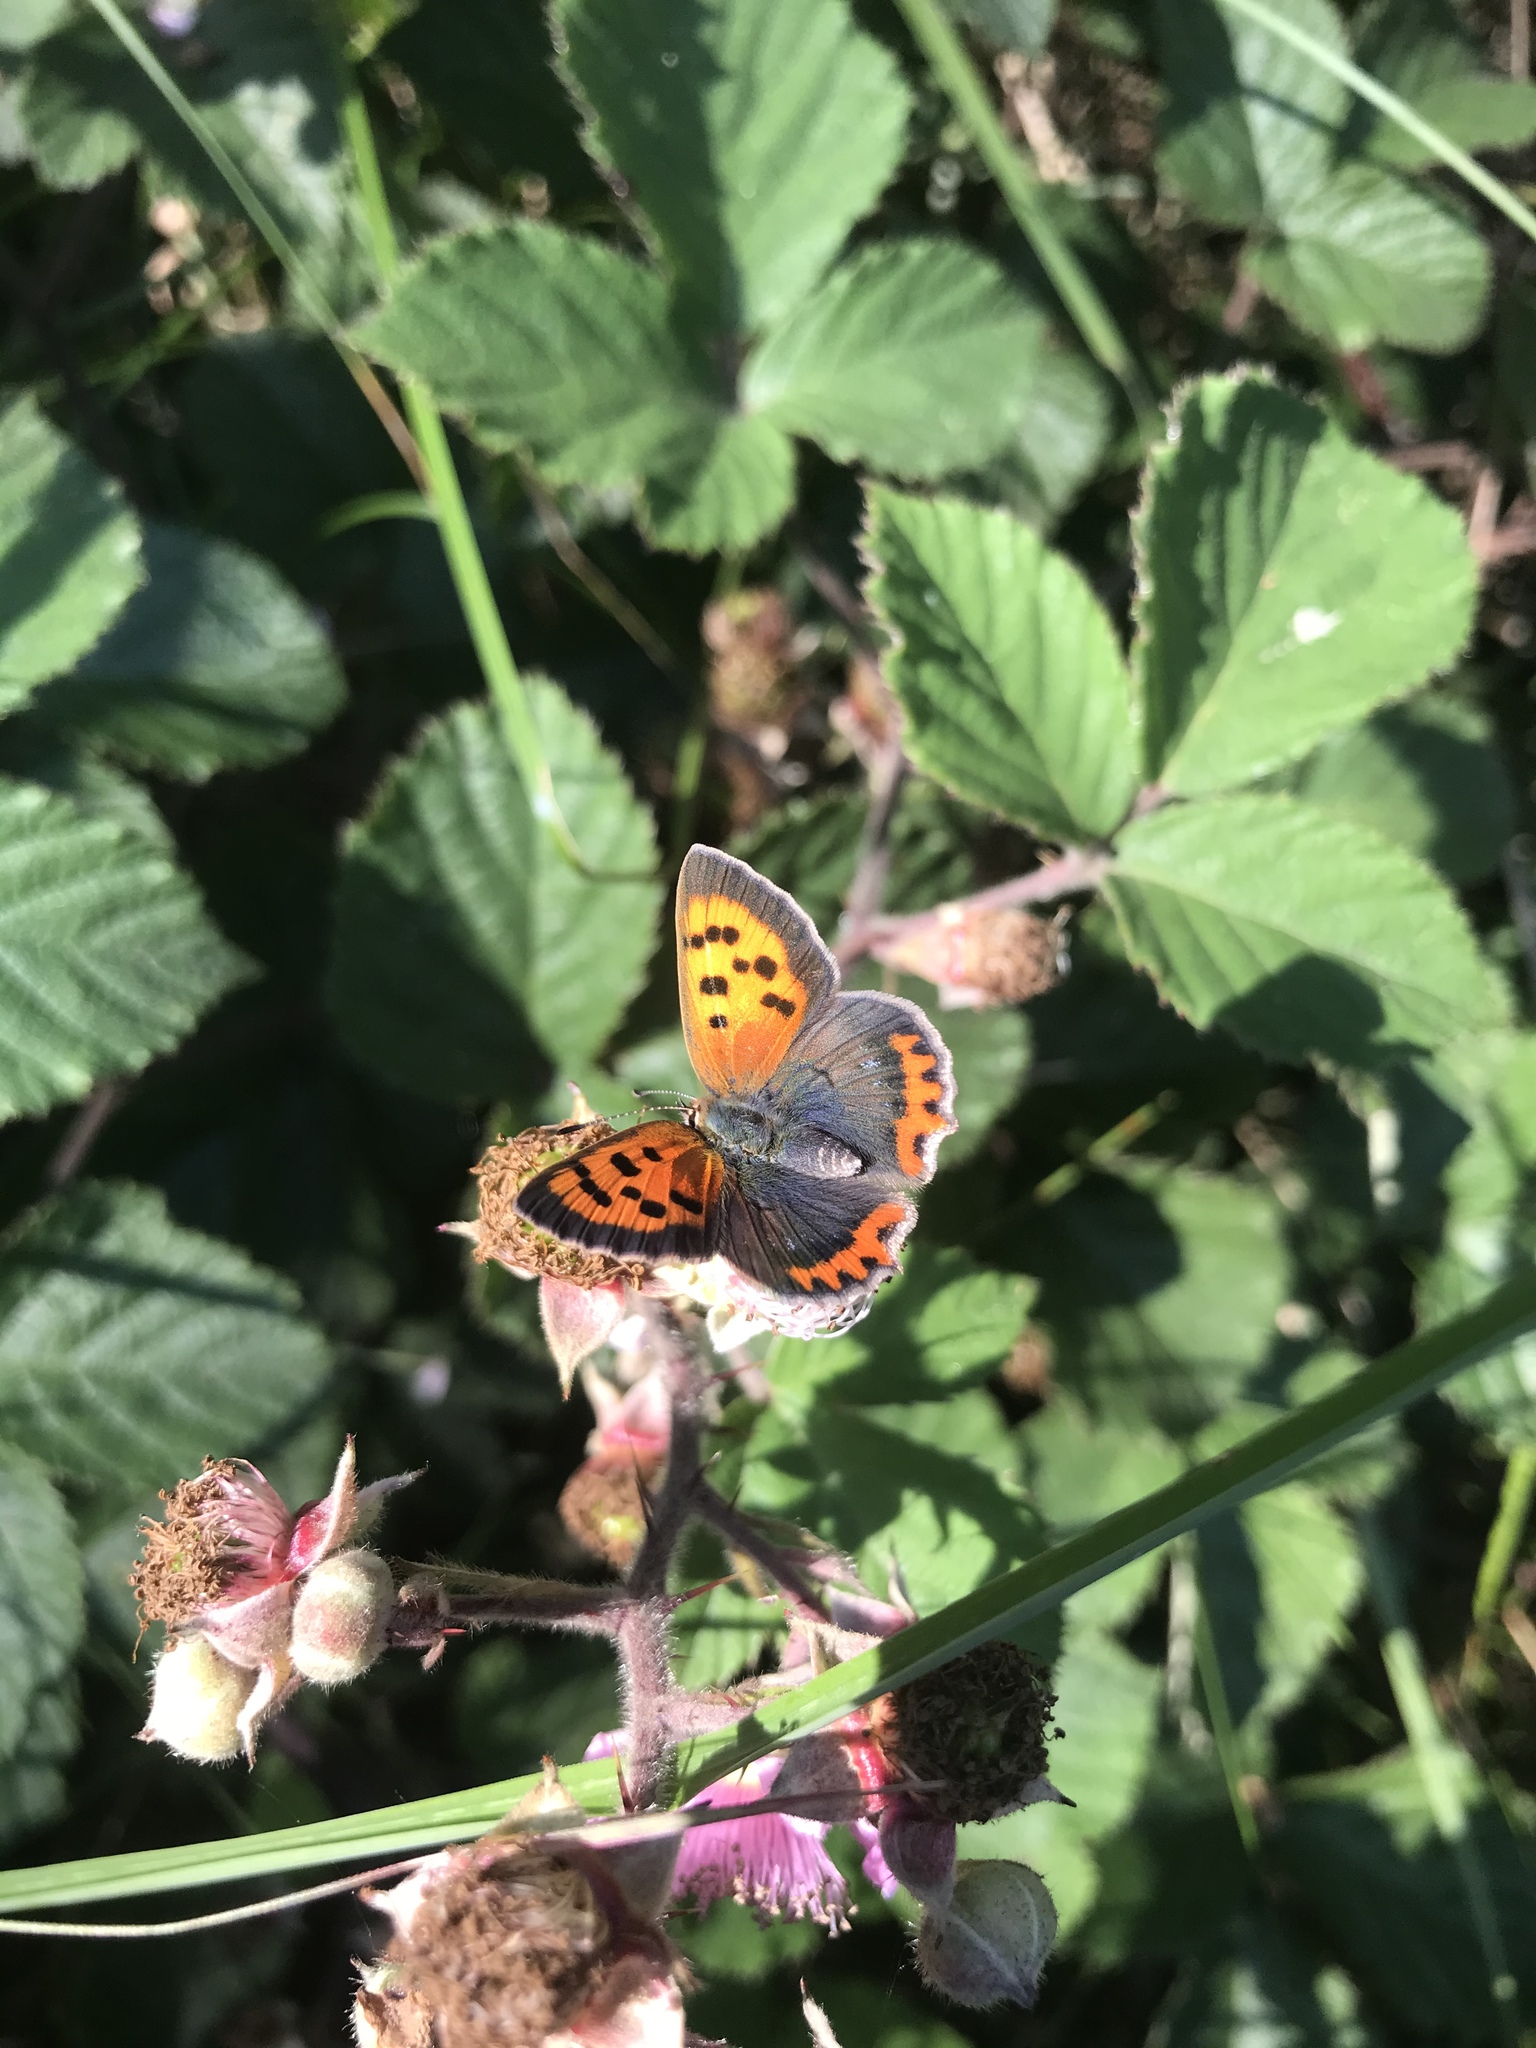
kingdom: Animalia
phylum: Arthropoda
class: Insecta
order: Lepidoptera
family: Lycaenidae
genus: Lycaena
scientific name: Lycaena phlaeas
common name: Small copper
